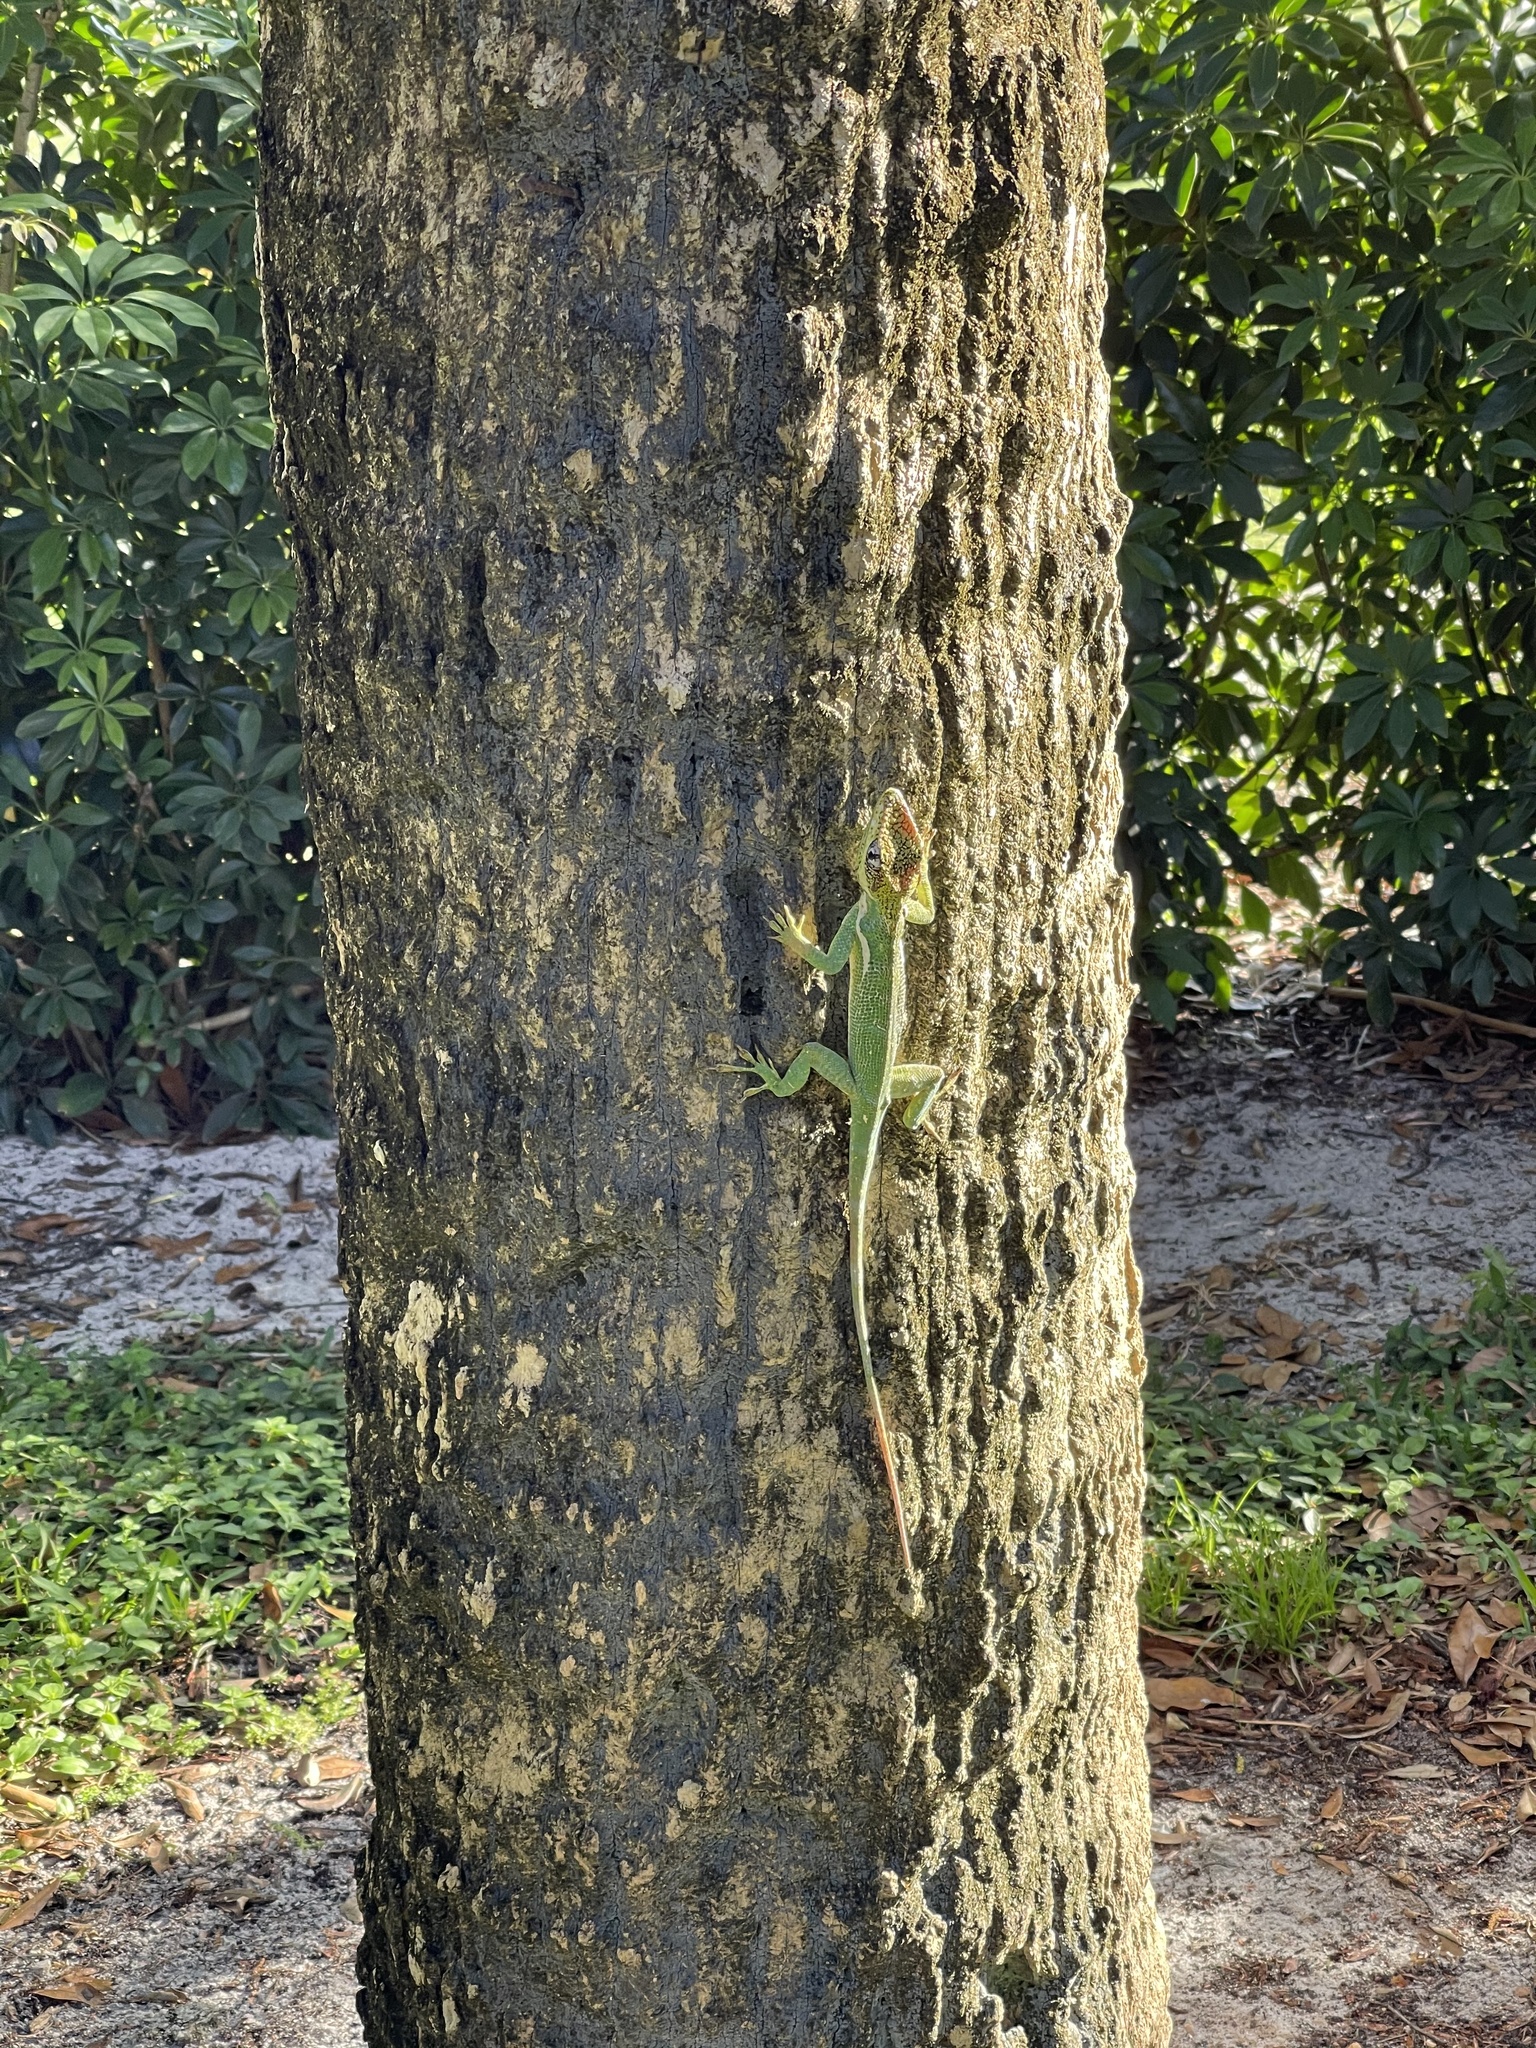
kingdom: Animalia
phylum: Chordata
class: Squamata
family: Dactyloidae
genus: Anolis
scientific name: Anolis equestris
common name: Knight anole
